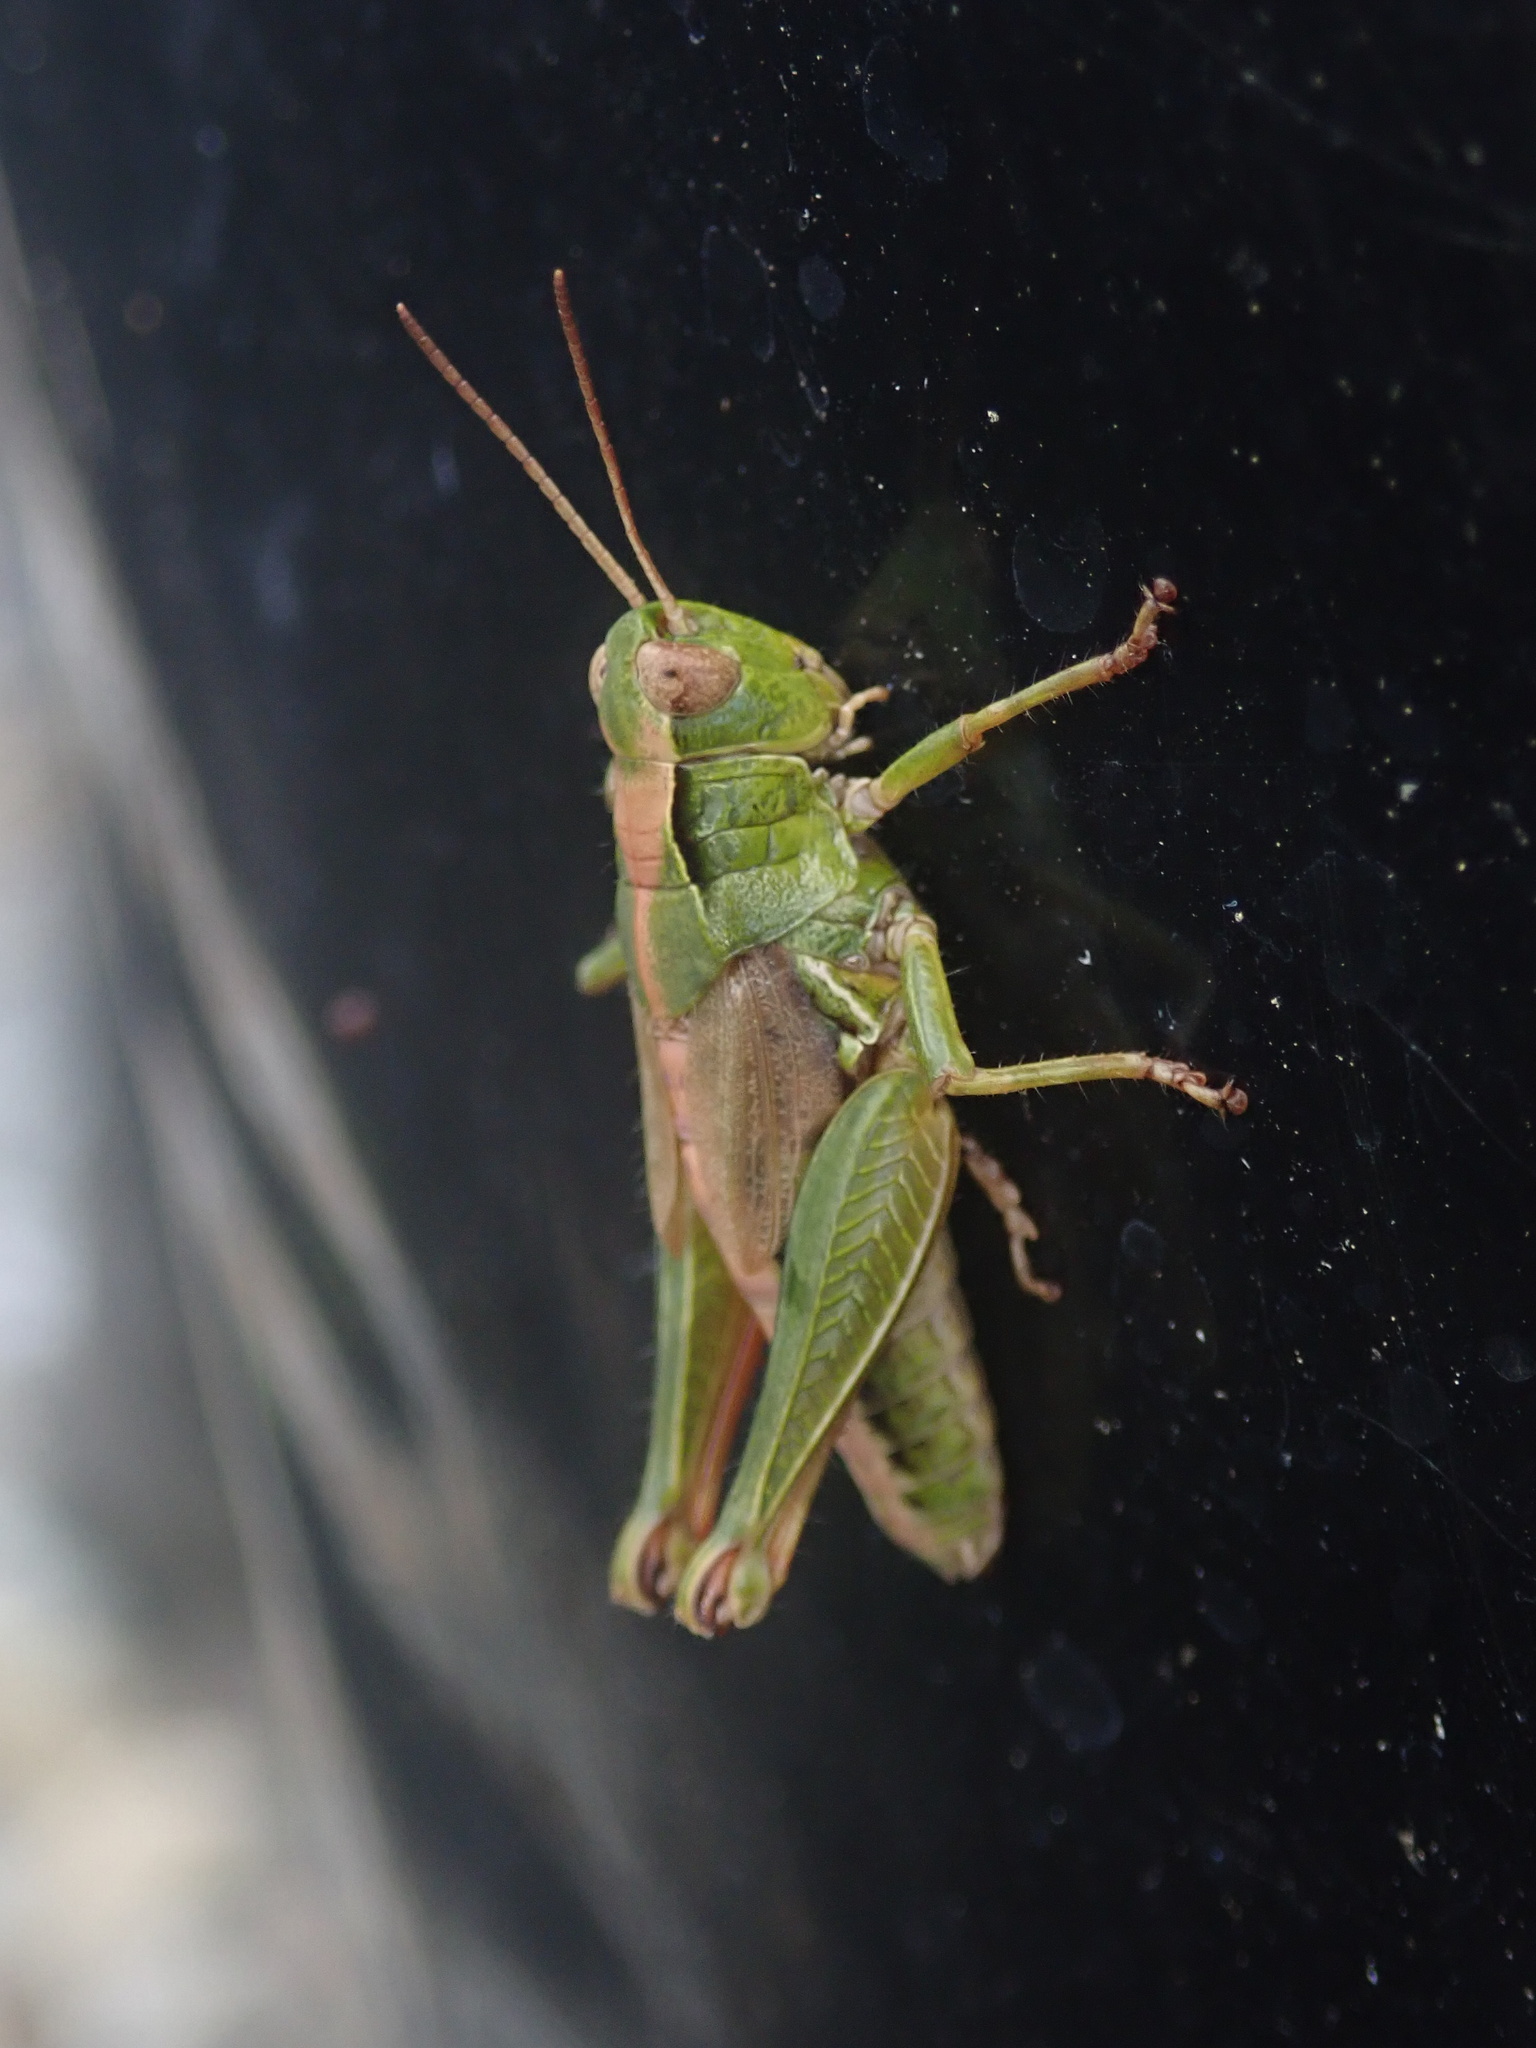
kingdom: Animalia
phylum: Arthropoda
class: Insecta
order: Orthoptera
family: Acrididae
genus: Phaulacridium
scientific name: Phaulacridium marginale
